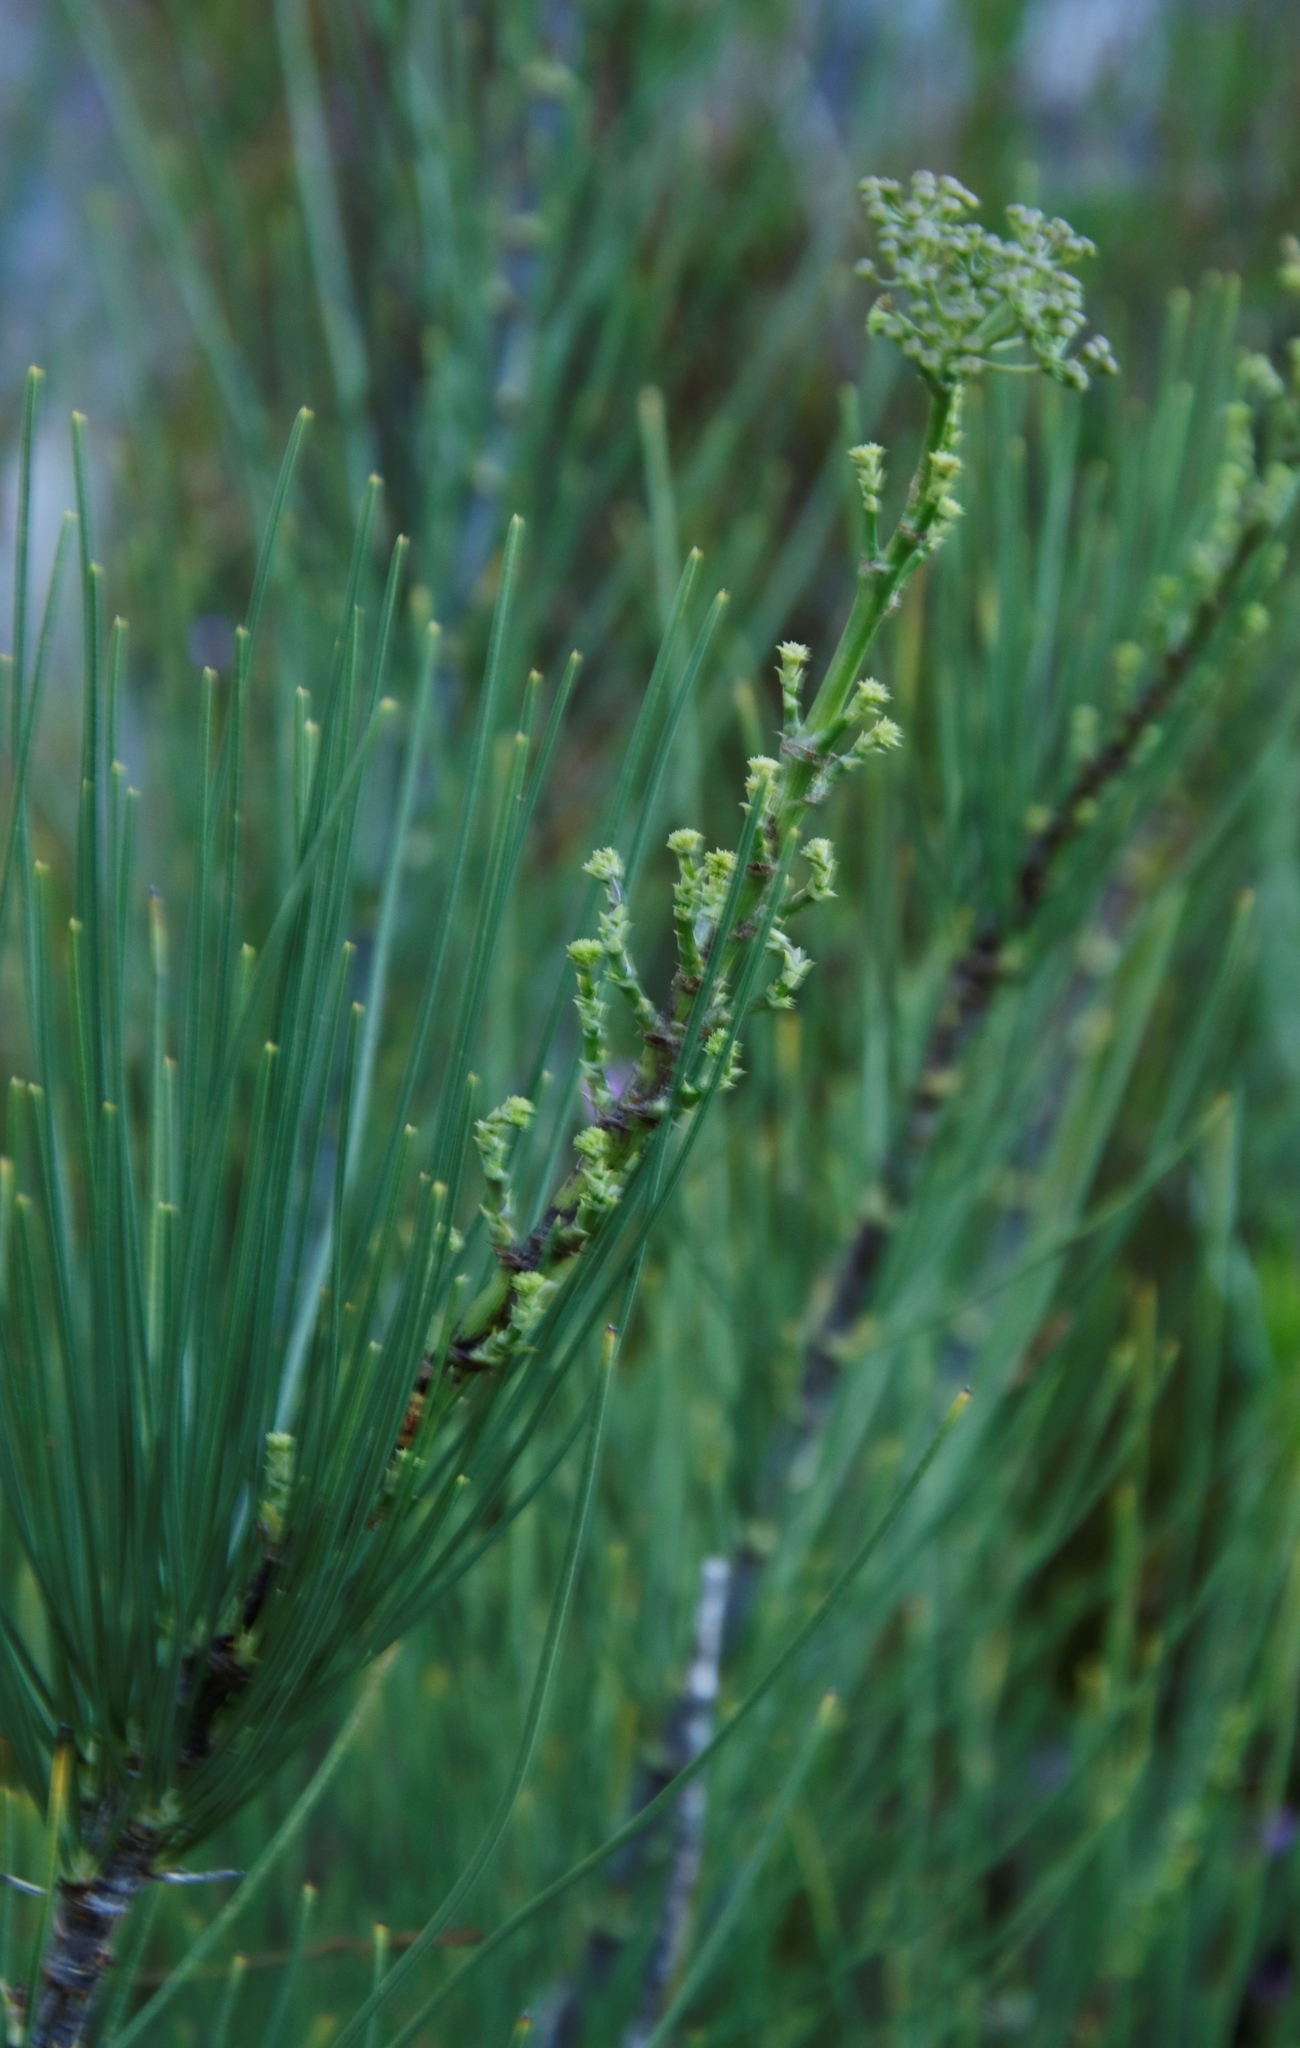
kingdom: Plantae
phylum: Tracheophyta
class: Magnoliopsida
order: Apiales
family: Apiaceae
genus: Anginon
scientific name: Anginon difforme
